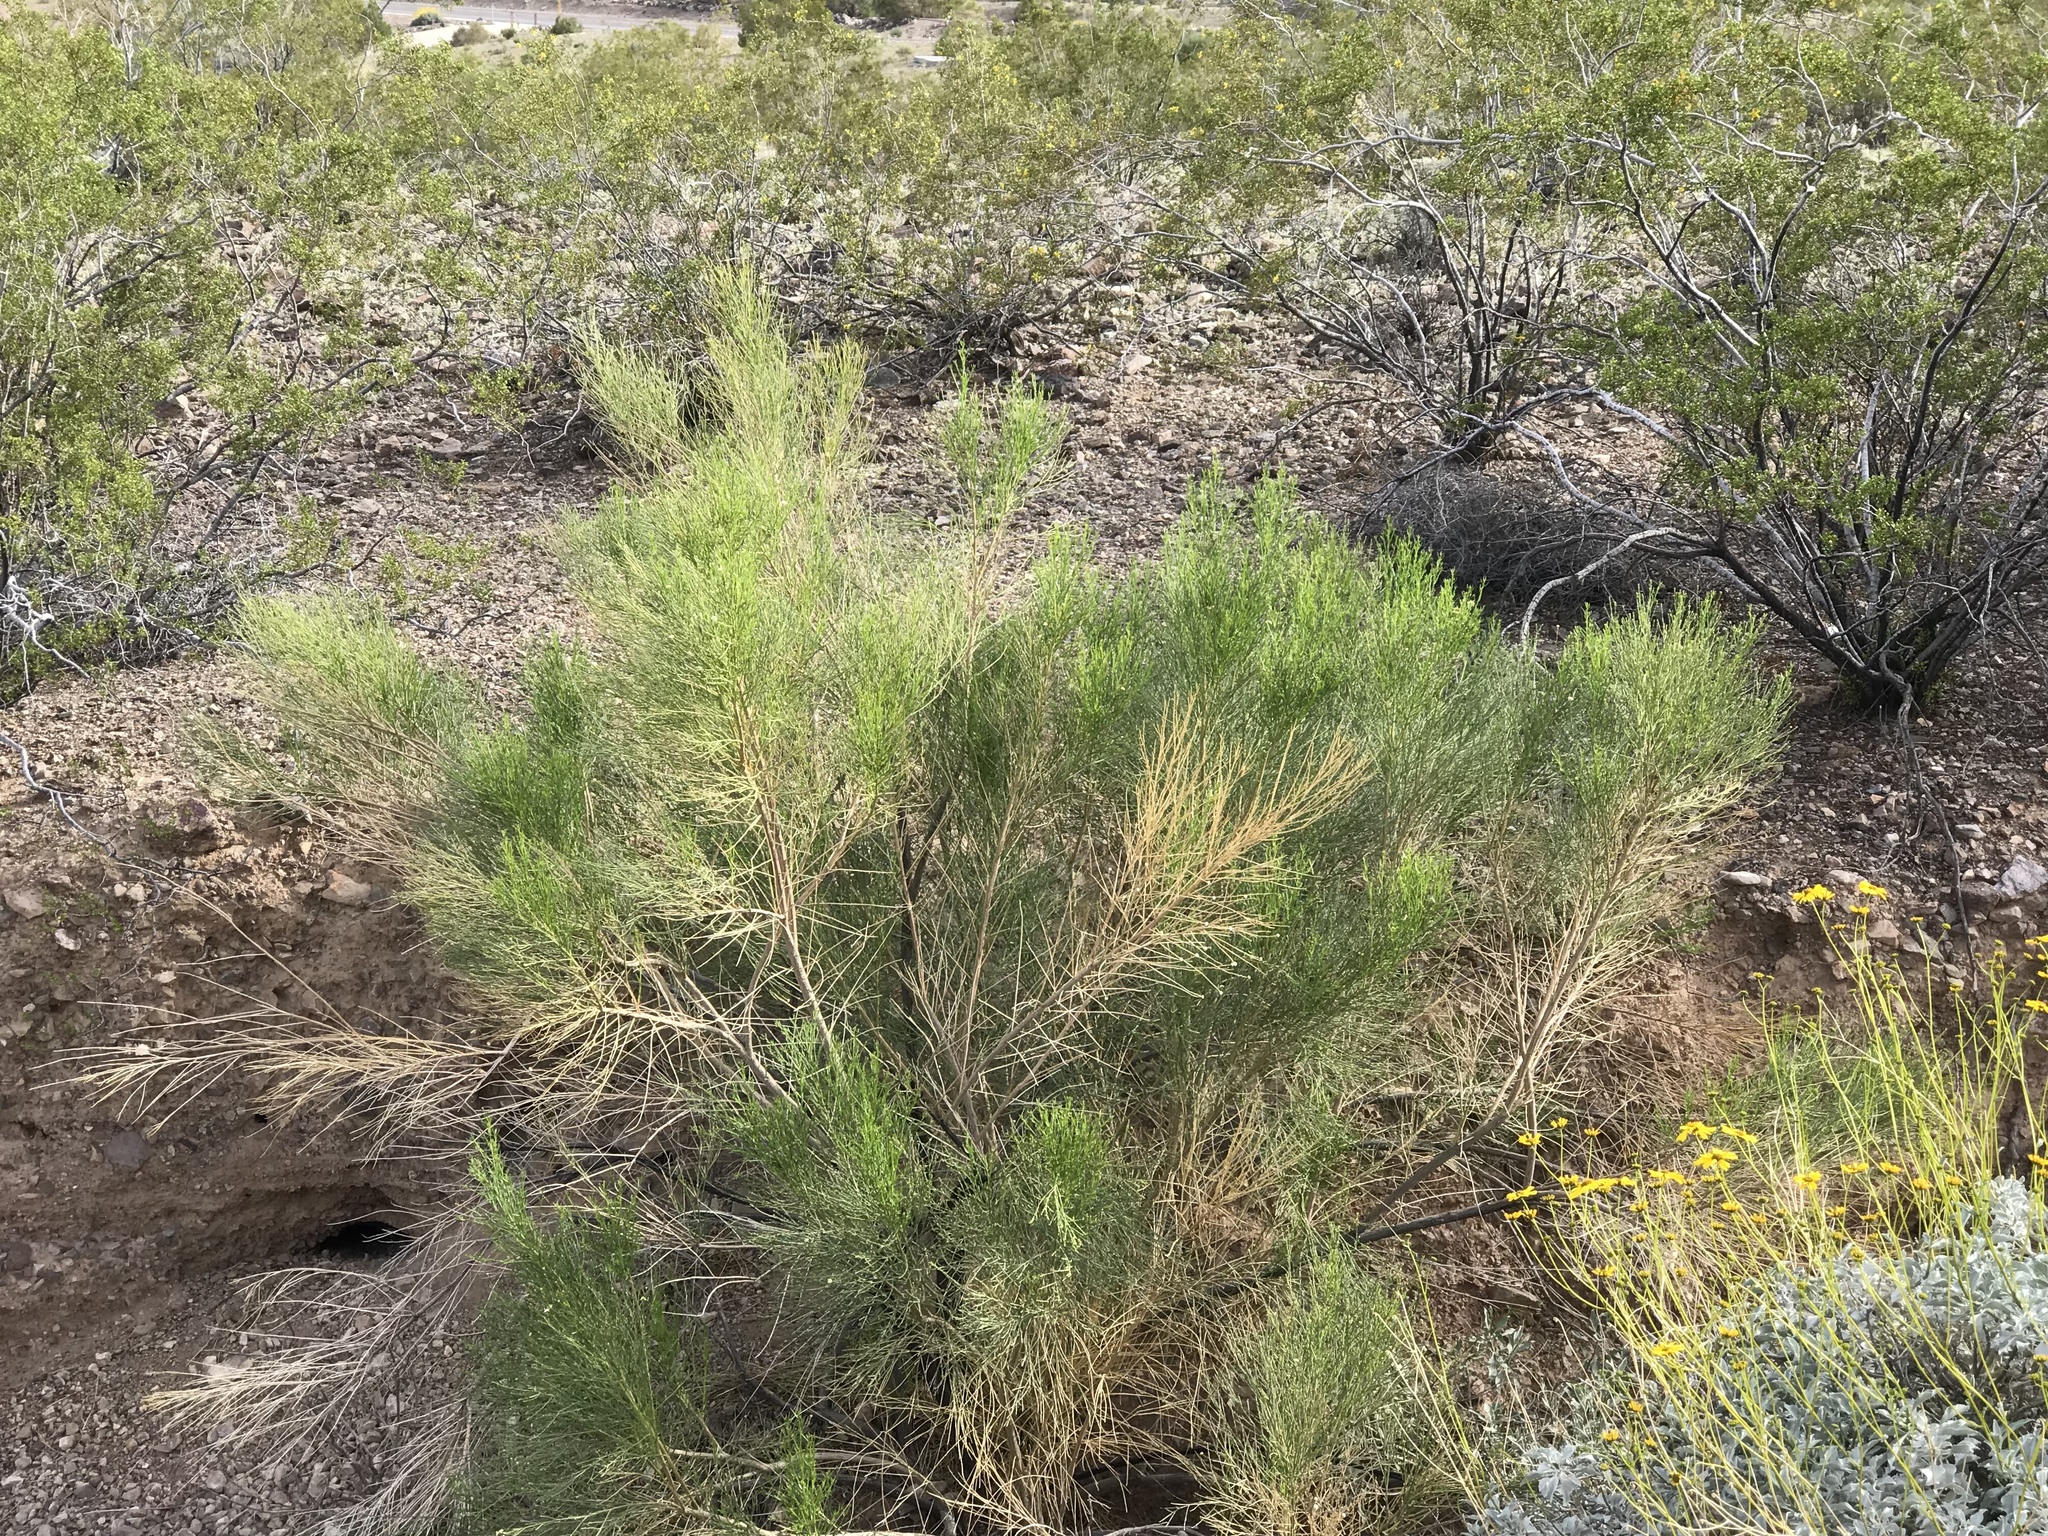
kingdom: Plantae
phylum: Tracheophyta
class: Magnoliopsida
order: Asterales
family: Asteraceae
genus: Baccharis
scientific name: Baccharis sarothroides
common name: Desert-broom
